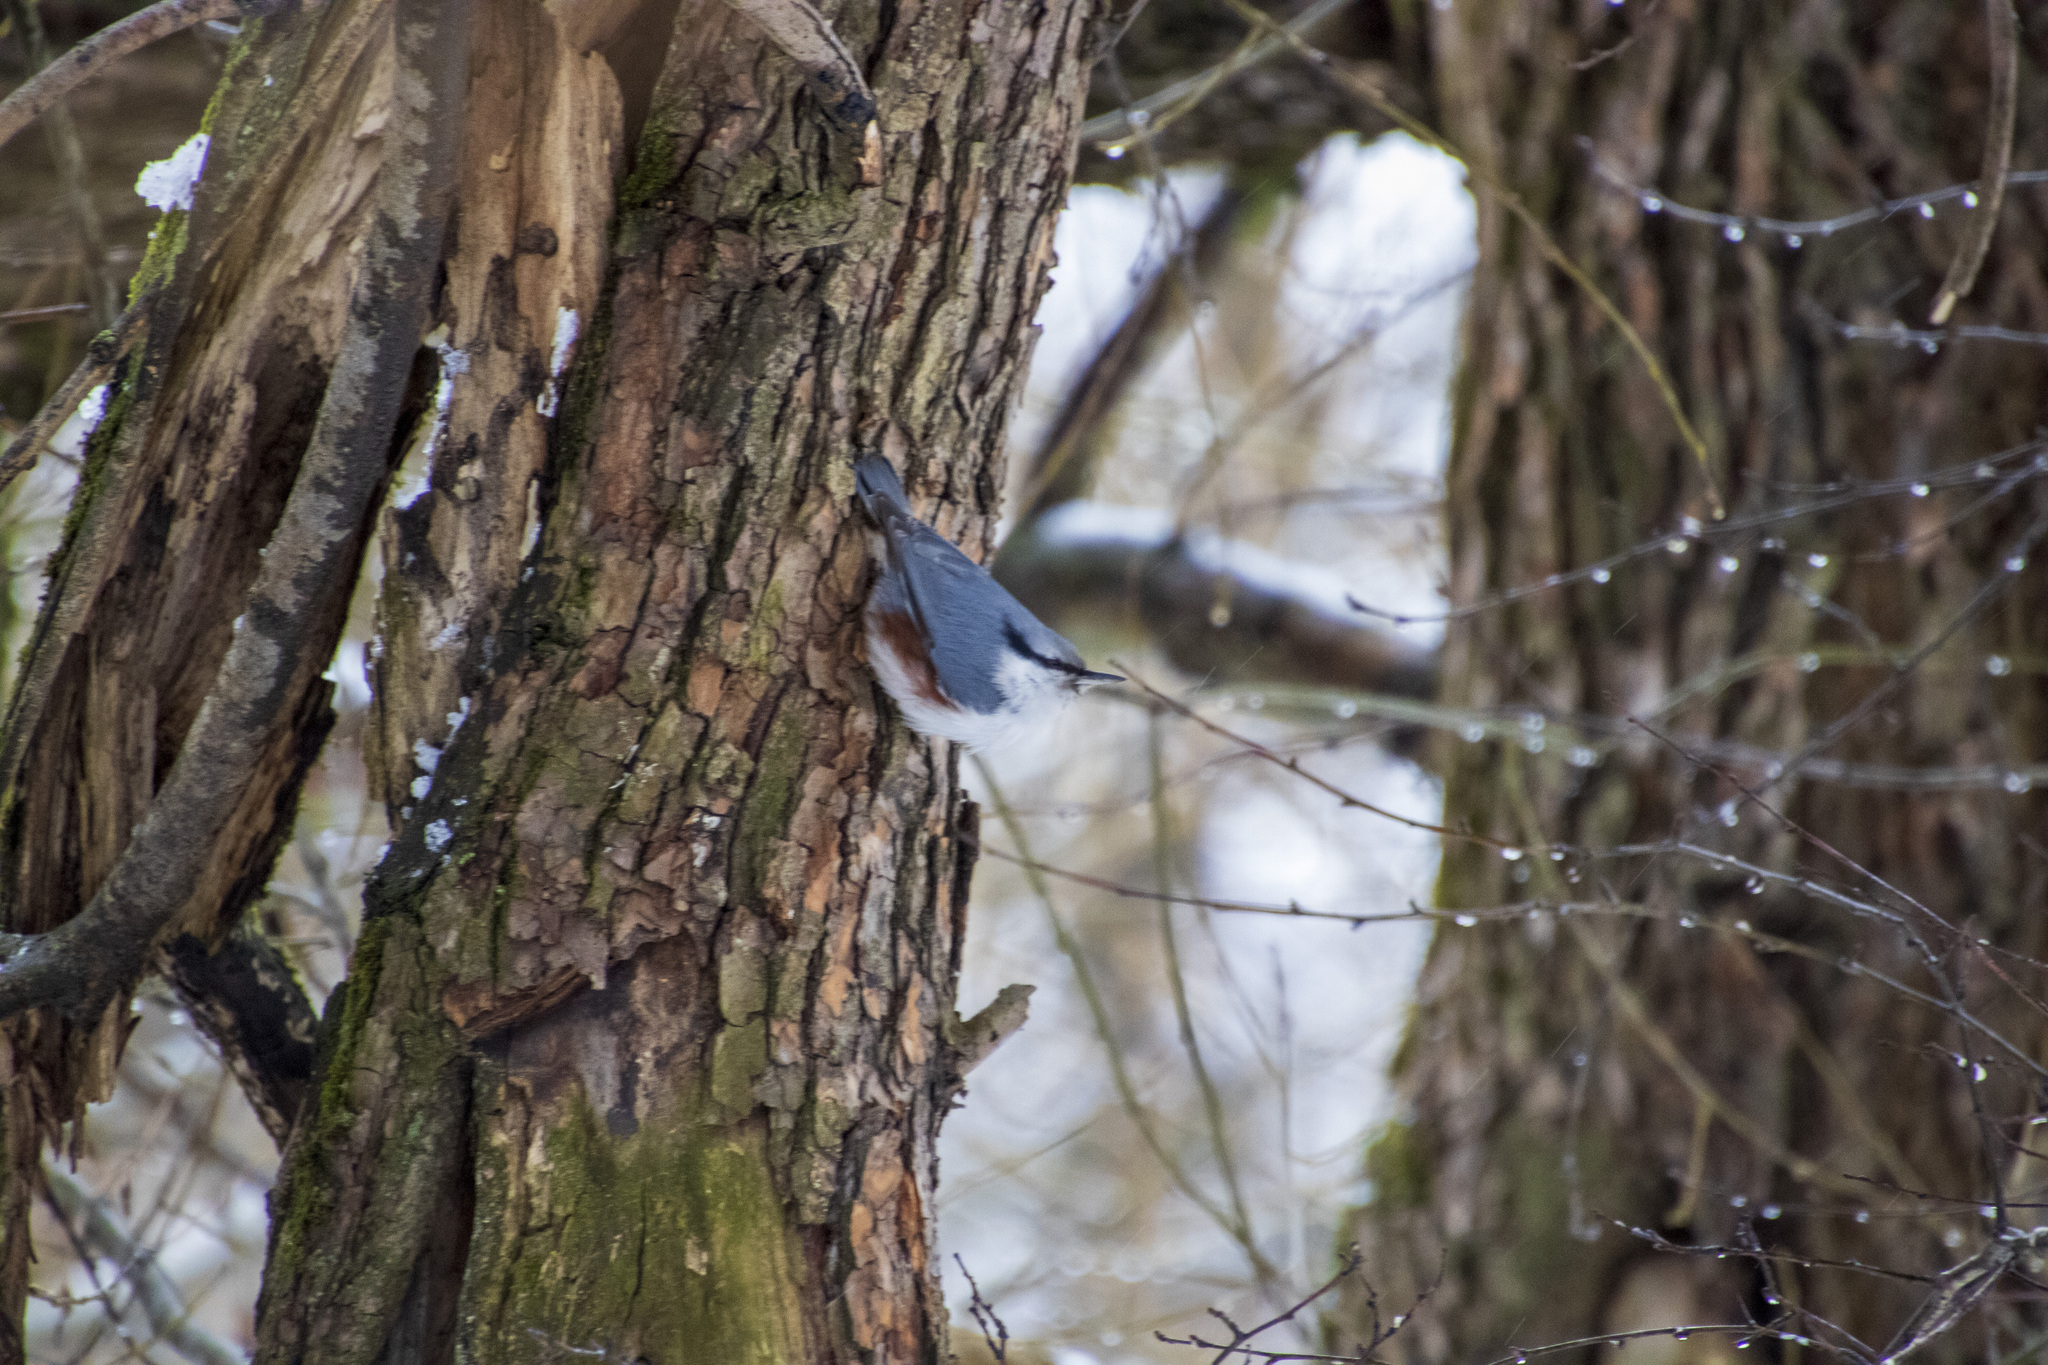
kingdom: Animalia
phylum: Chordata
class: Aves
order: Passeriformes
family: Sittidae
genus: Sitta
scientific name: Sitta europaea
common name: Eurasian nuthatch
